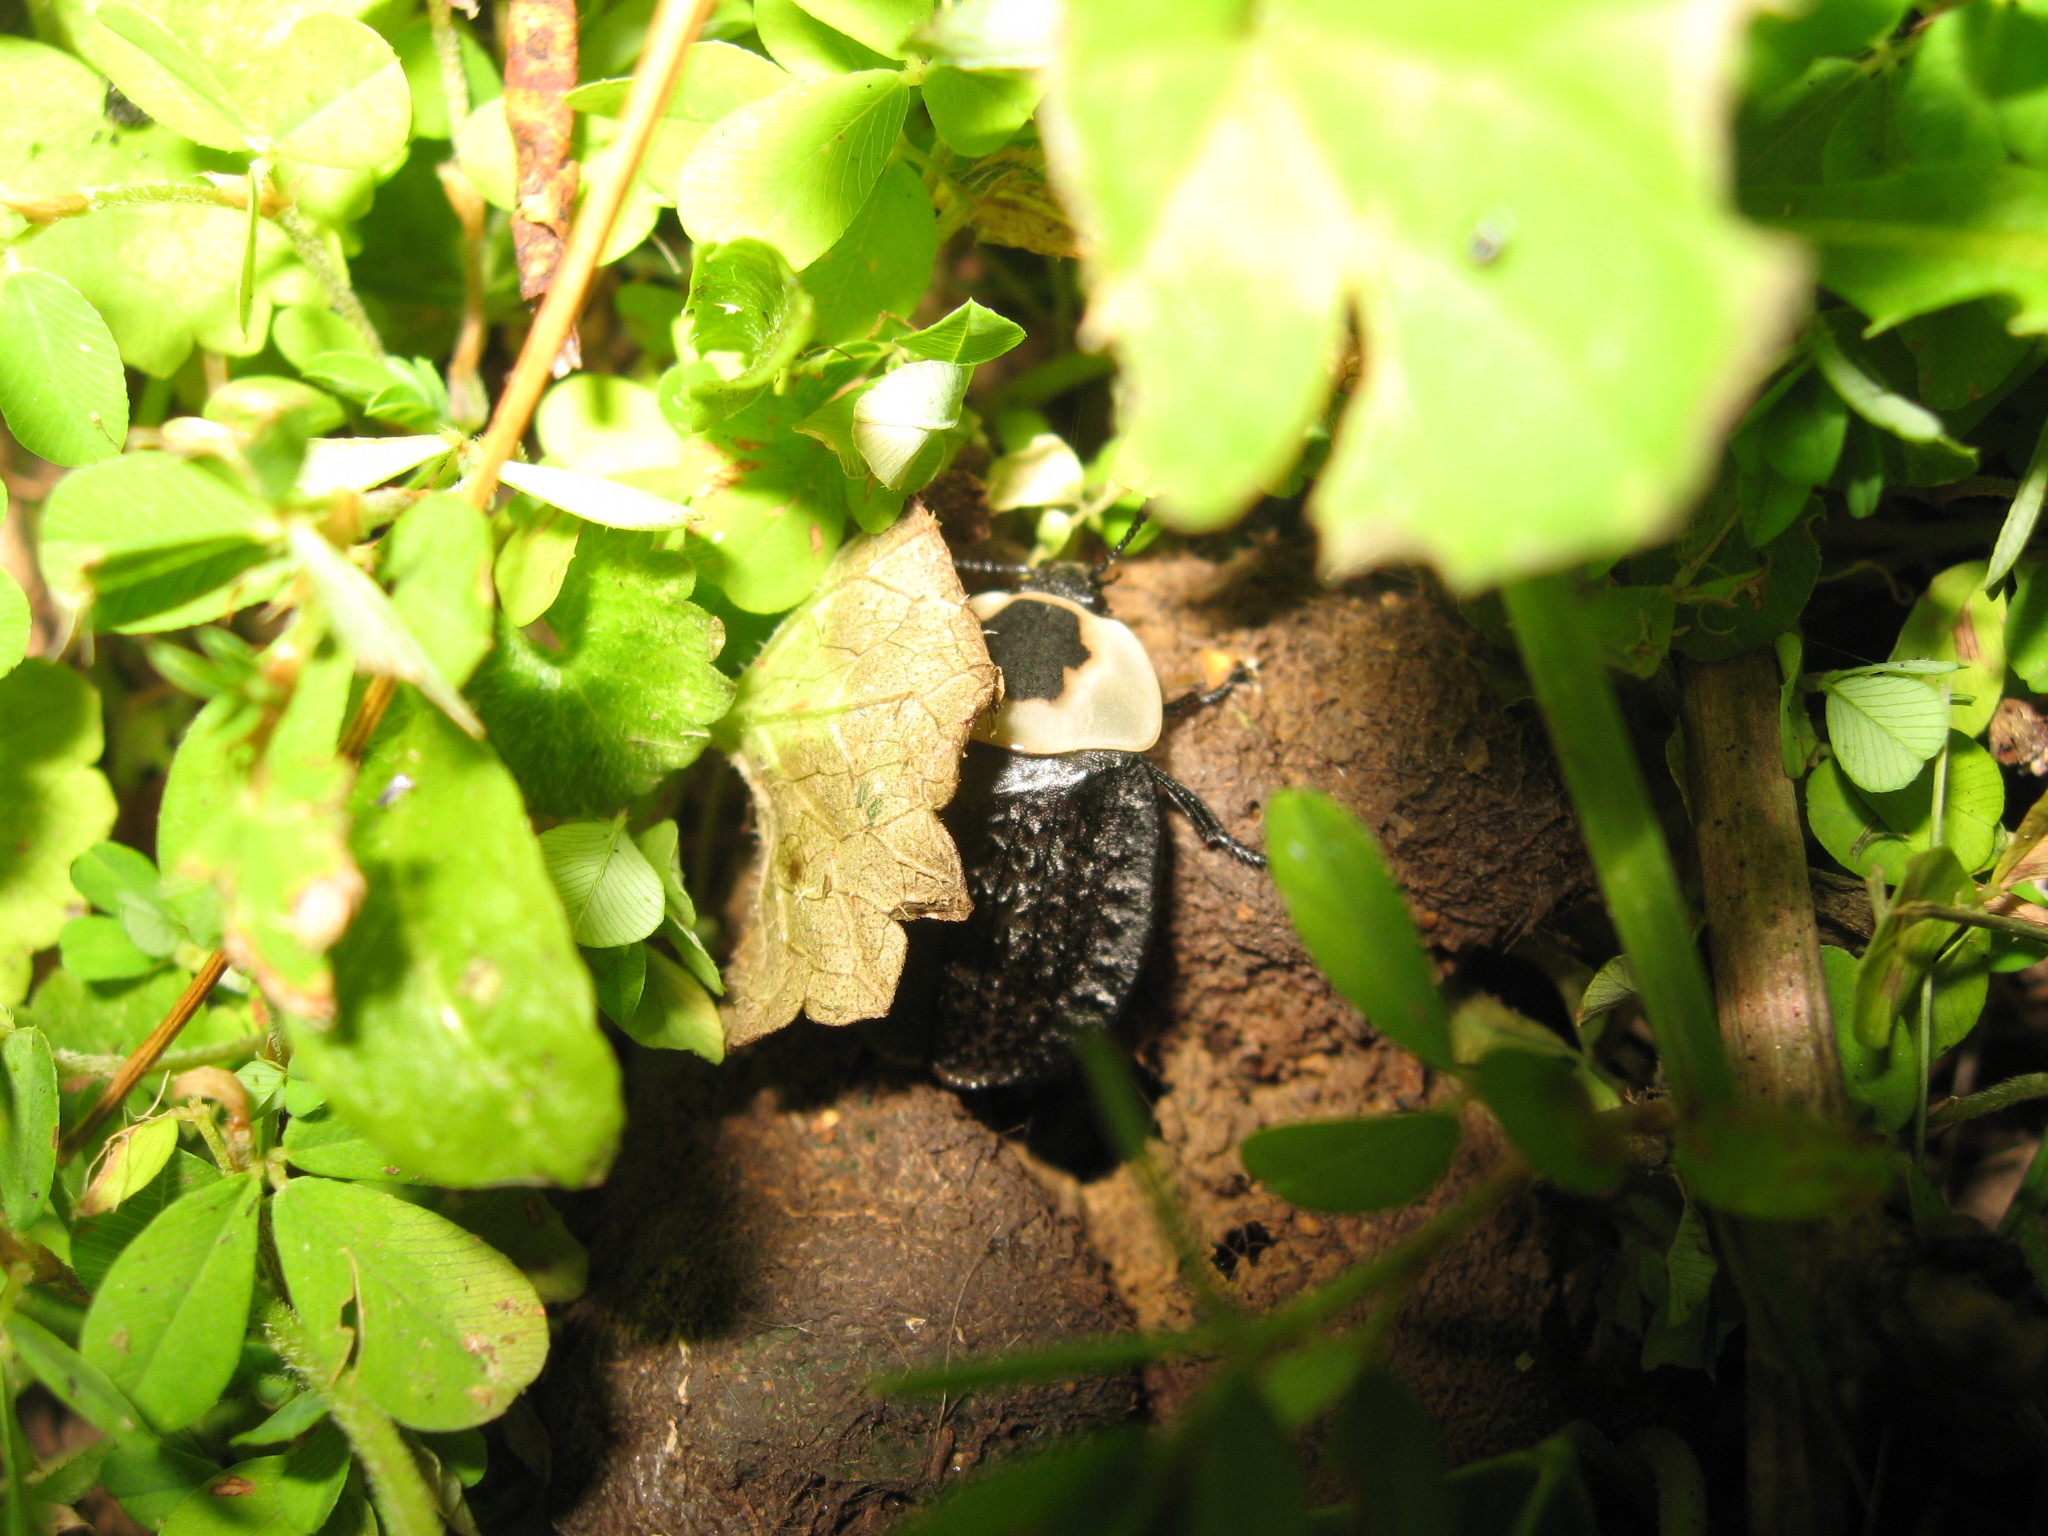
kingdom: Animalia
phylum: Arthropoda
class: Insecta
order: Coleoptera
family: Staphylinidae
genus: Necrophila
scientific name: Necrophila americana
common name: American carrion beetle
